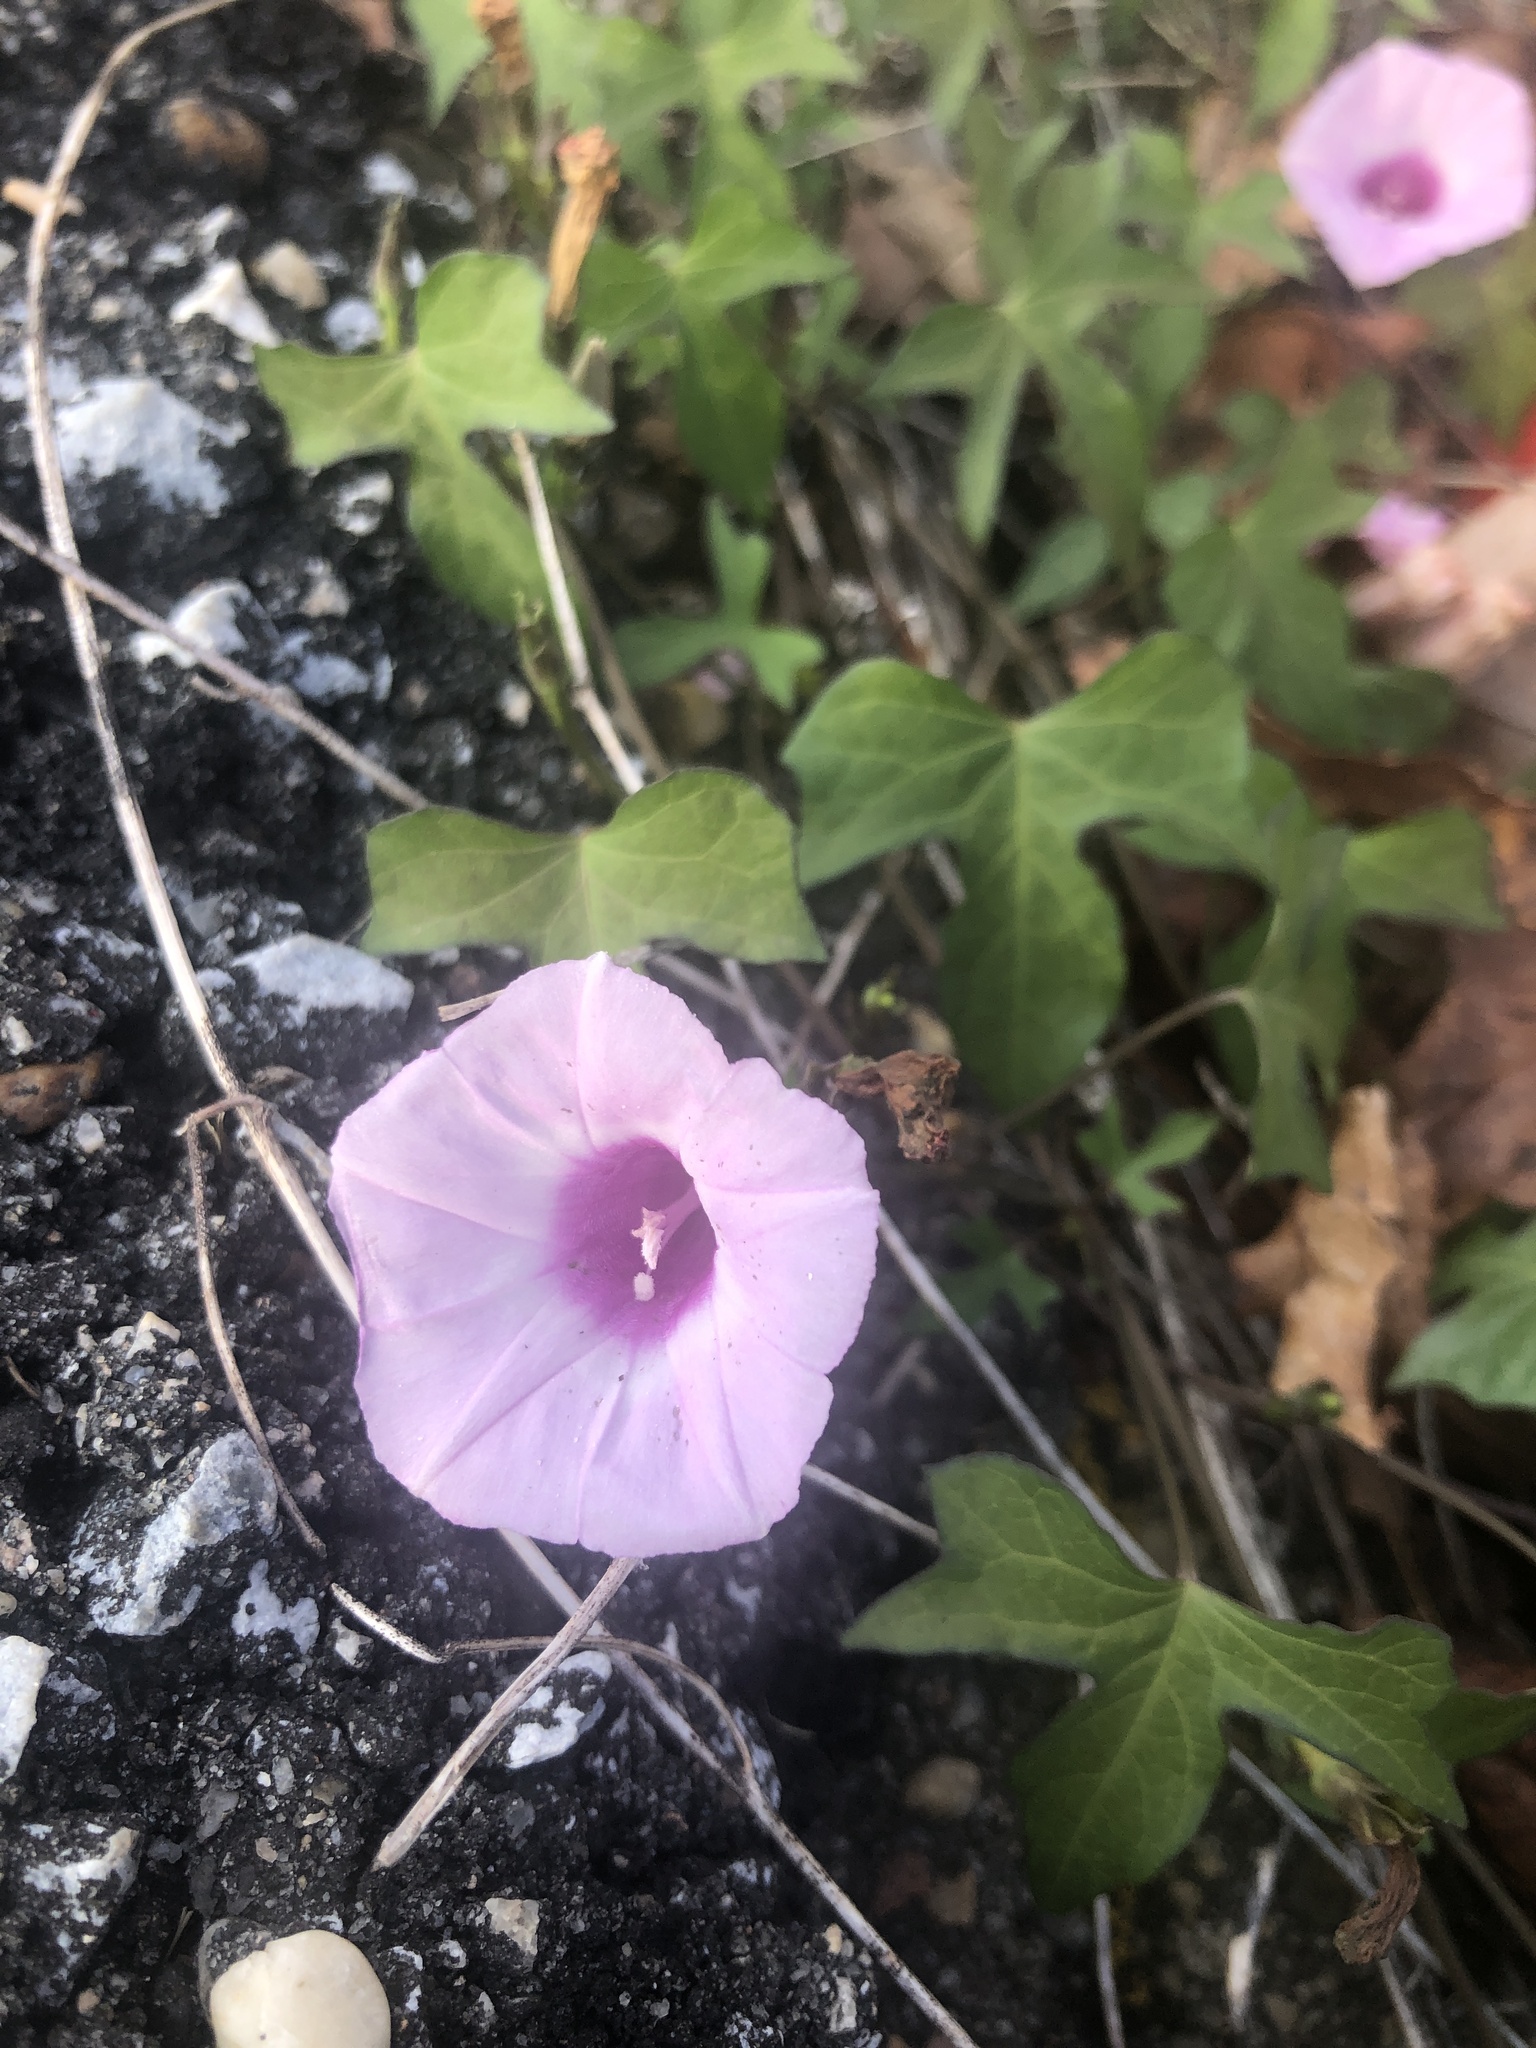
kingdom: Plantae
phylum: Tracheophyta
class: Magnoliopsida
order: Solanales
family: Convolvulaceae
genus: Ipomoea
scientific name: Ipomoea cordatotriloba
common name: Cotton morning glory
